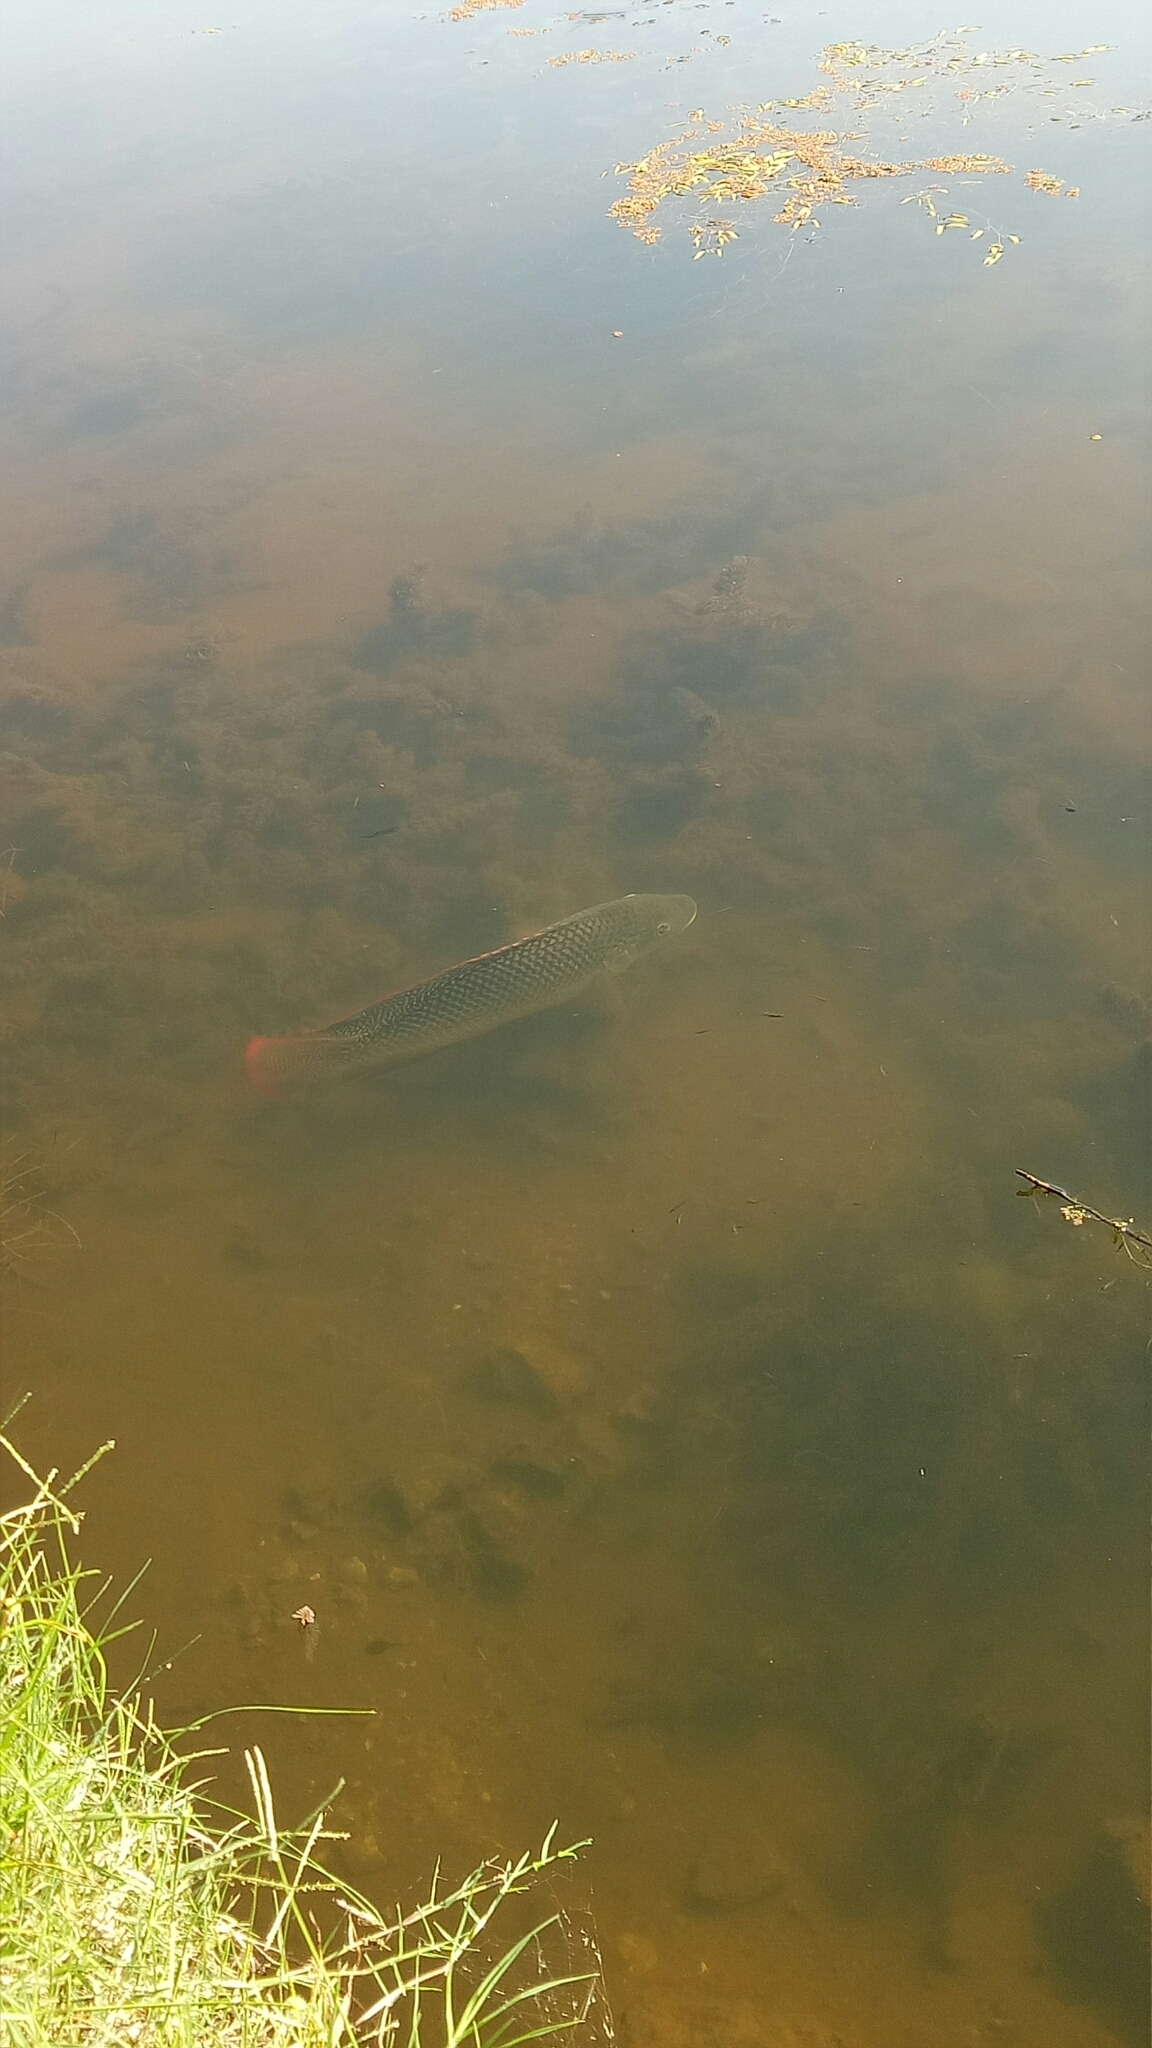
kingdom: Animalia
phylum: Chordata
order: Perciformes
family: Cichlidae
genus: Oreochromis
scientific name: Oreochromis mossambicus
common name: Mozambique tilapia
